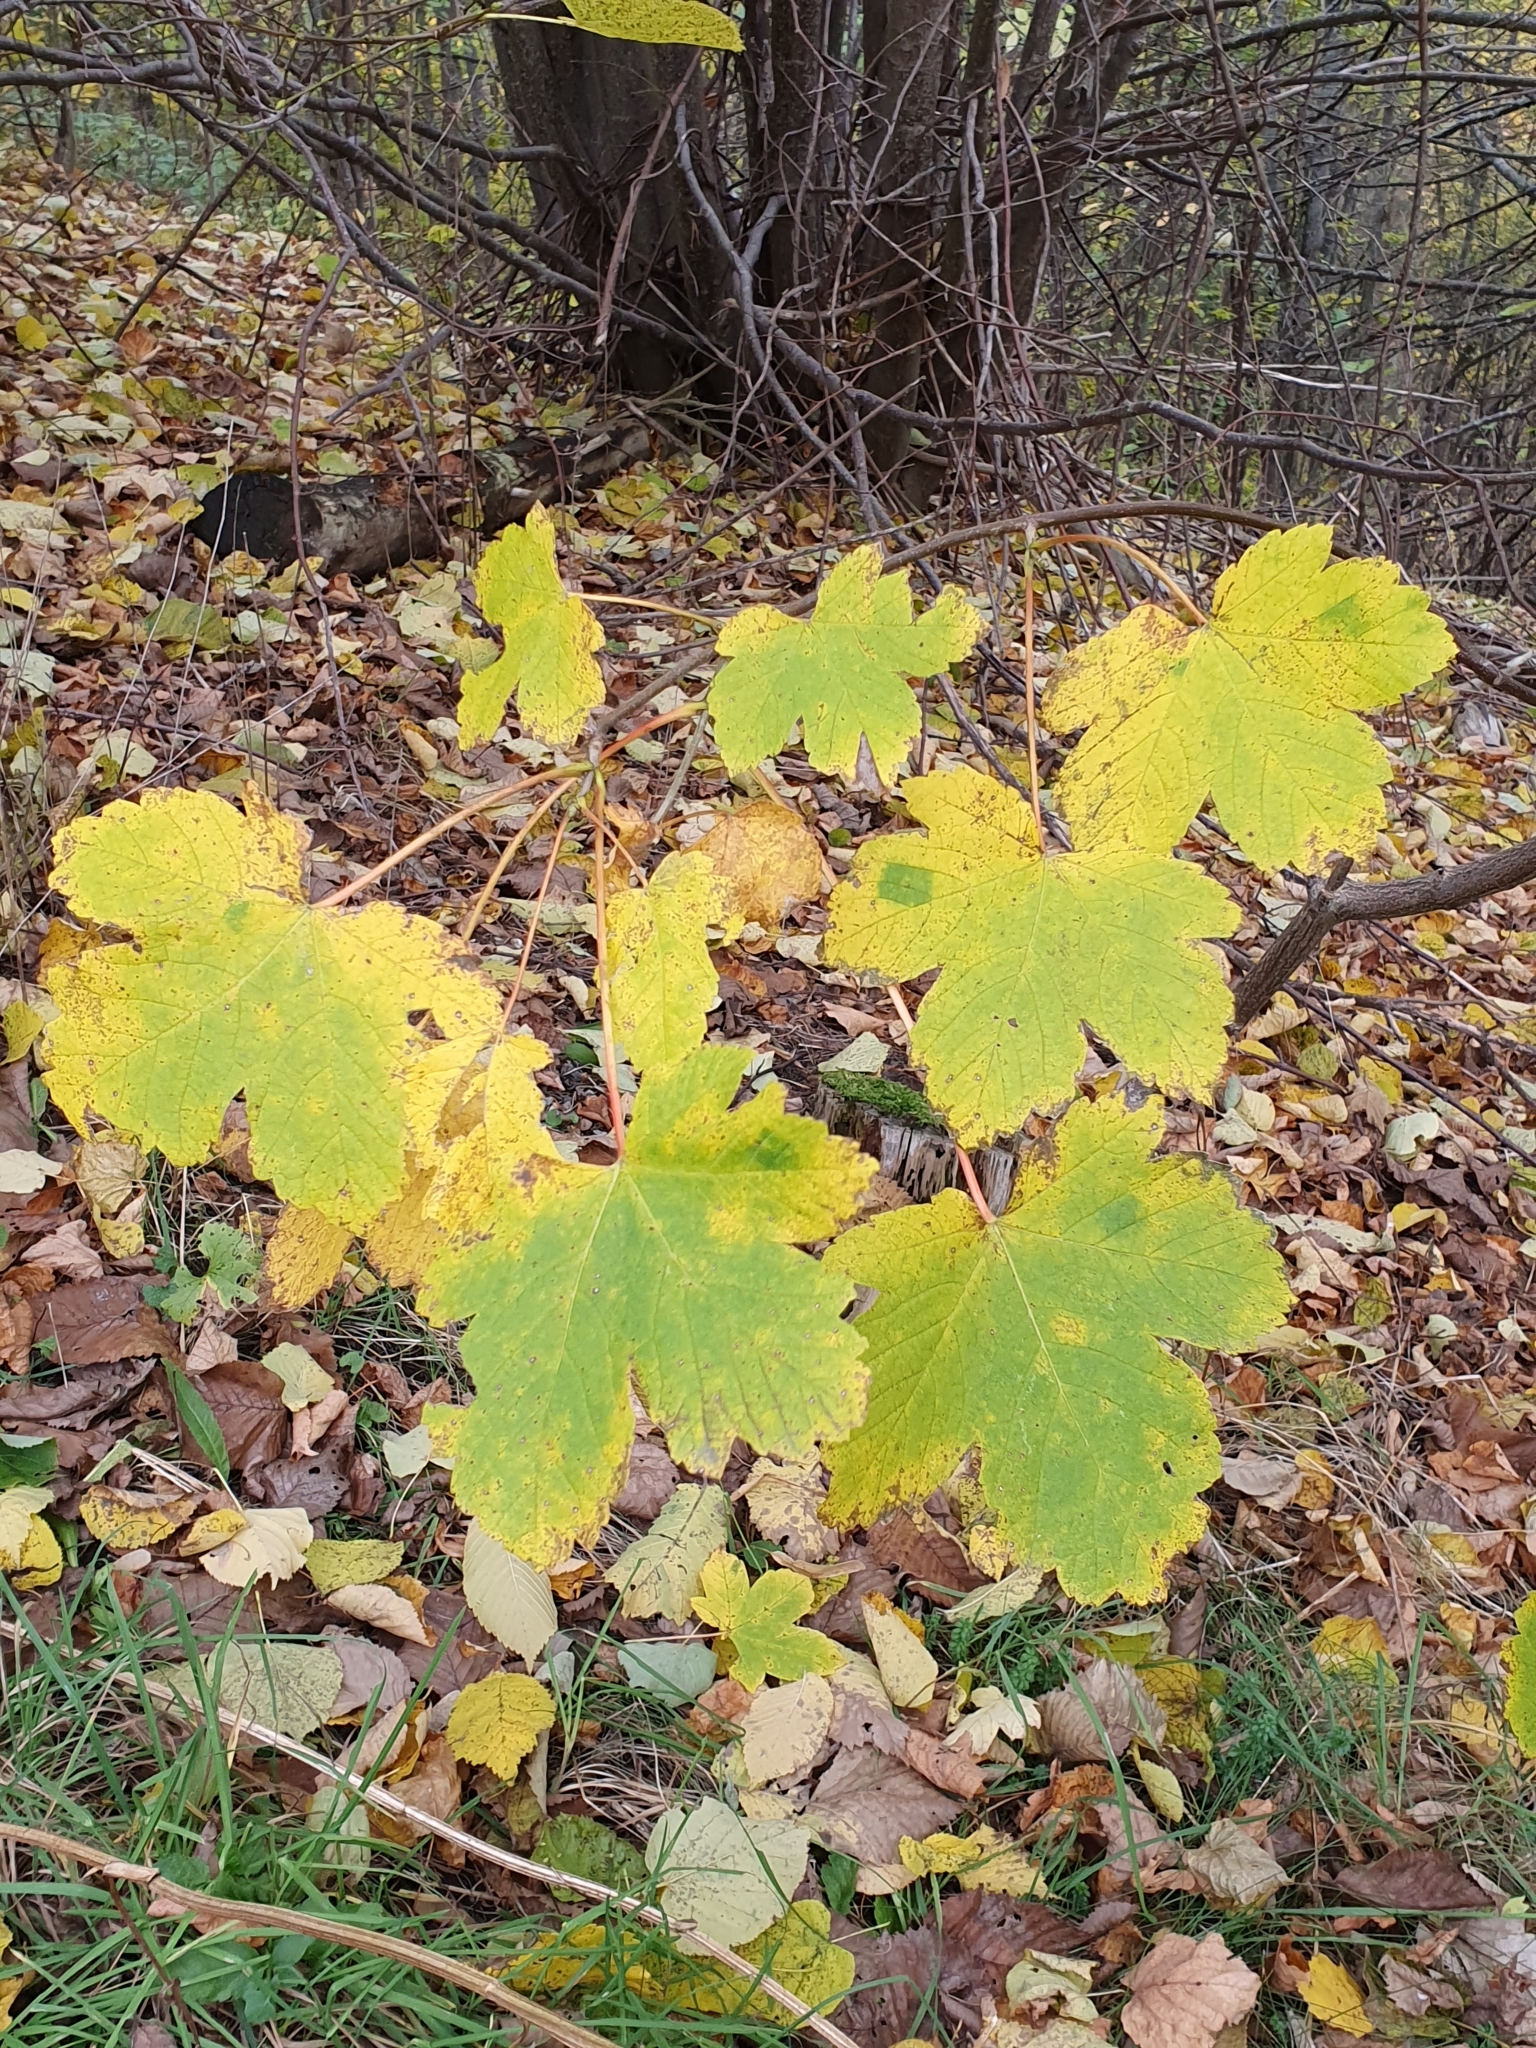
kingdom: Plantae
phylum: Tracheophyta
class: Magnoliopsida
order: Sapindales
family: Sapindaceae
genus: Acer
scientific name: Acer pseudoplatanus
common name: Sycamore
